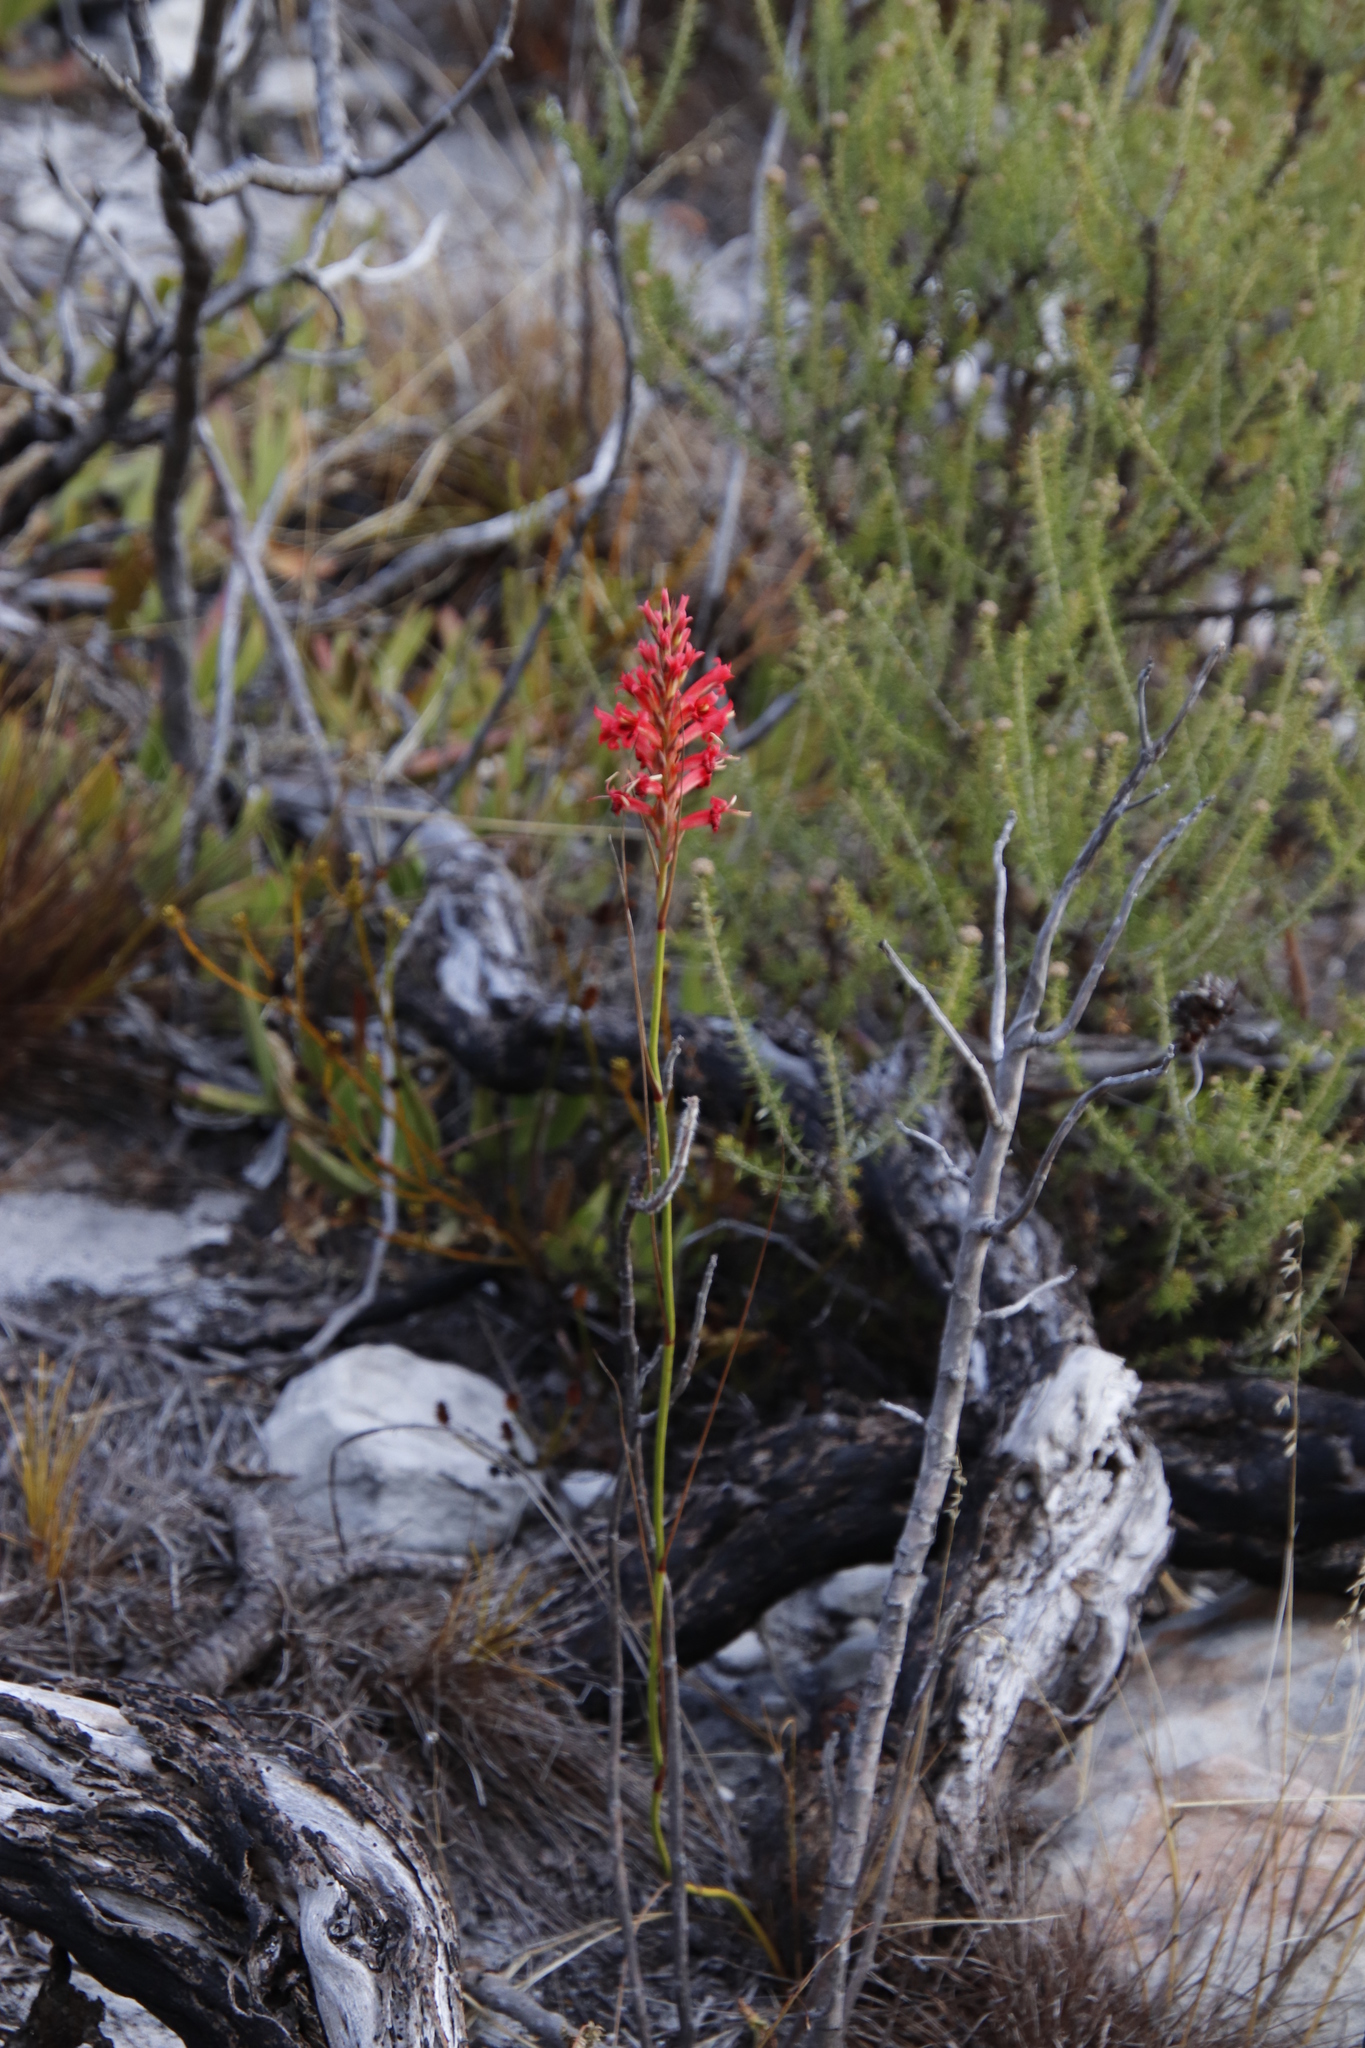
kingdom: Plantae
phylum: Tracheophyta
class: Liliopsida
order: Asparagales
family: Iridaceae
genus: Tritoniopsis
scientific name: Tritoniopsis triticea
